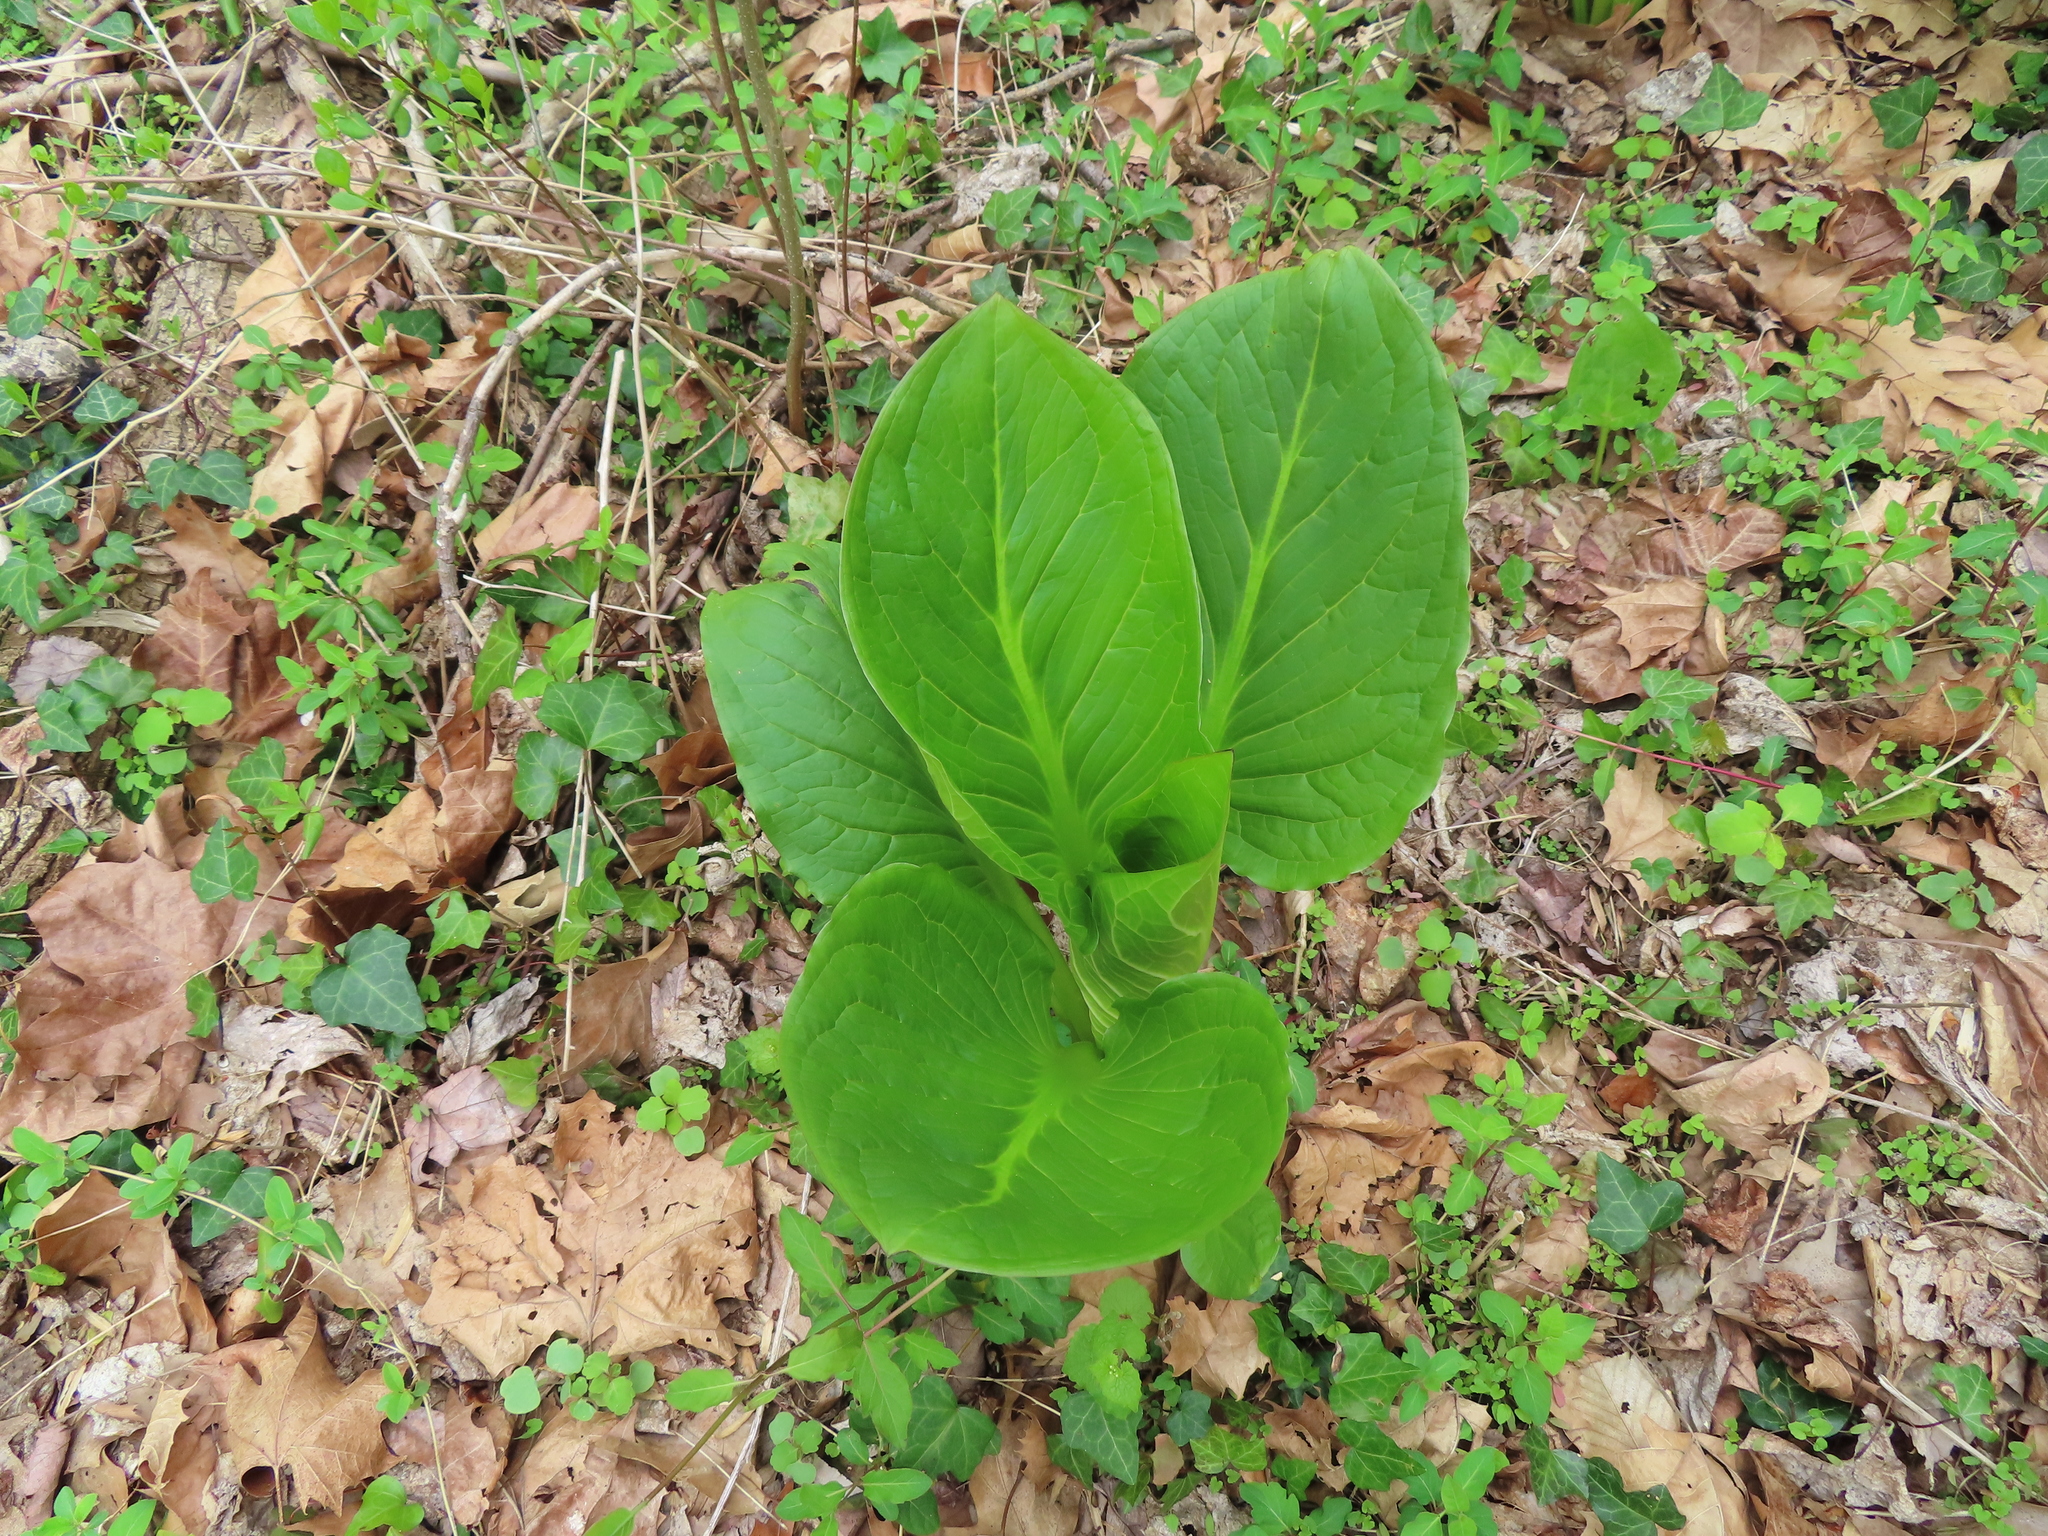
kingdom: Plantae
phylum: Tracheophyta
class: Liliopsida
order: Alismatales
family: Araceae
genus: Symplocarpus
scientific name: Symplocarpus foetidus
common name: Eastern skunk cabbage
